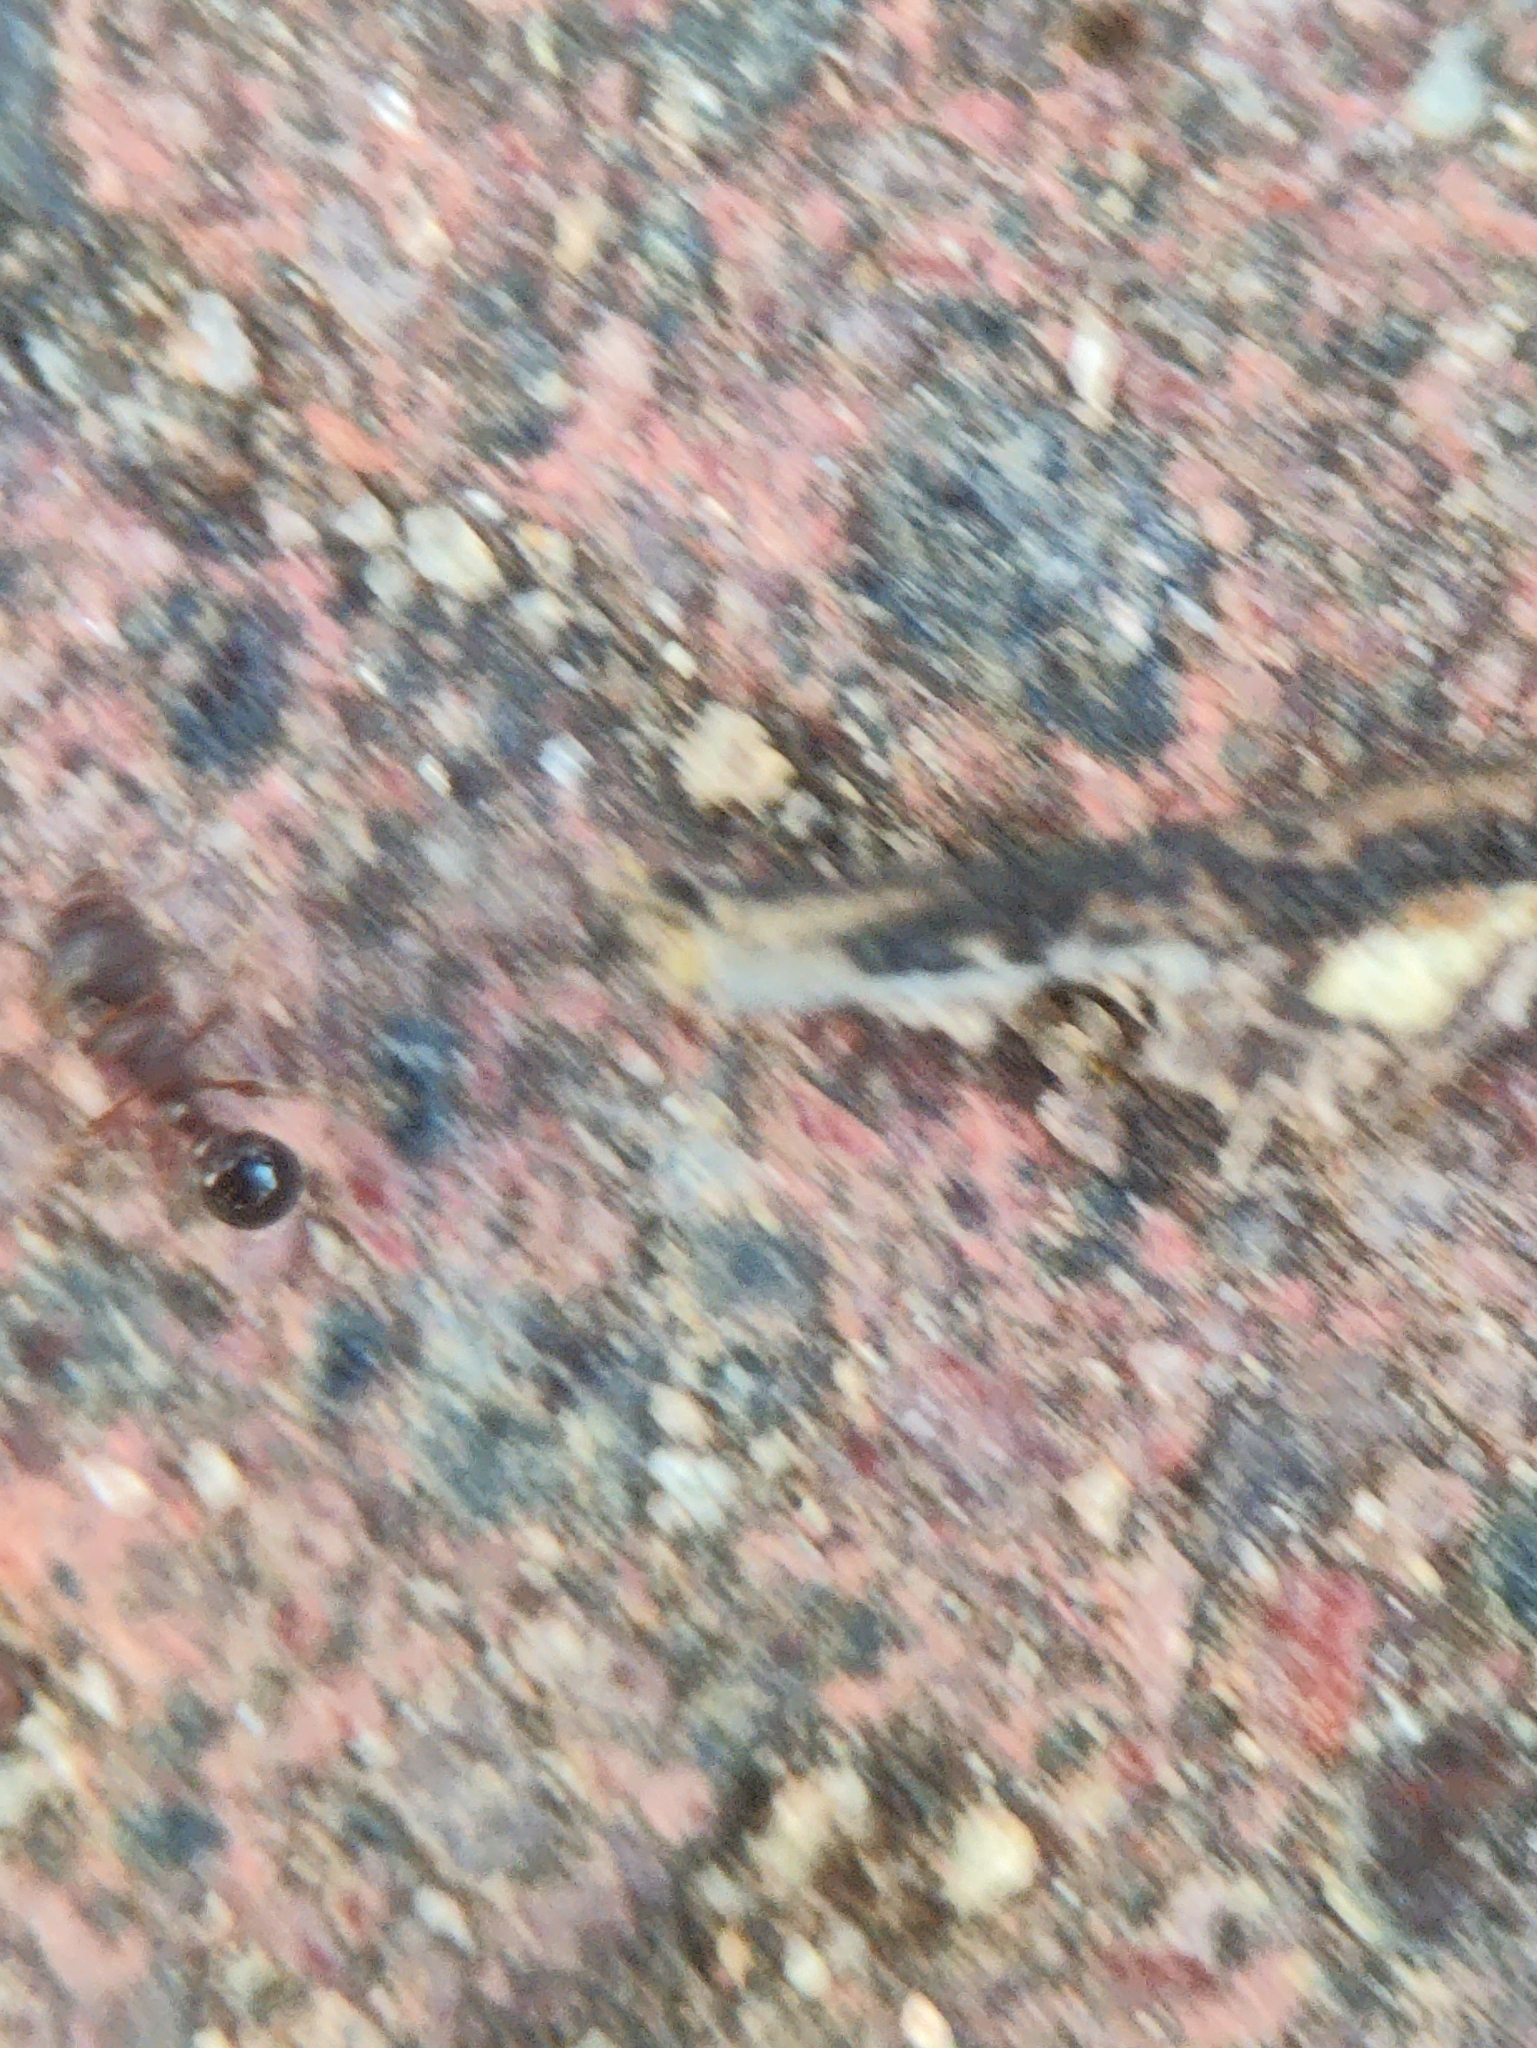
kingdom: Animalia
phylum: Arthropoda
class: Insecta
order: Hymenoptera
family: Formicidae
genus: Tetramorium
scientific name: Tetramorium smithi
